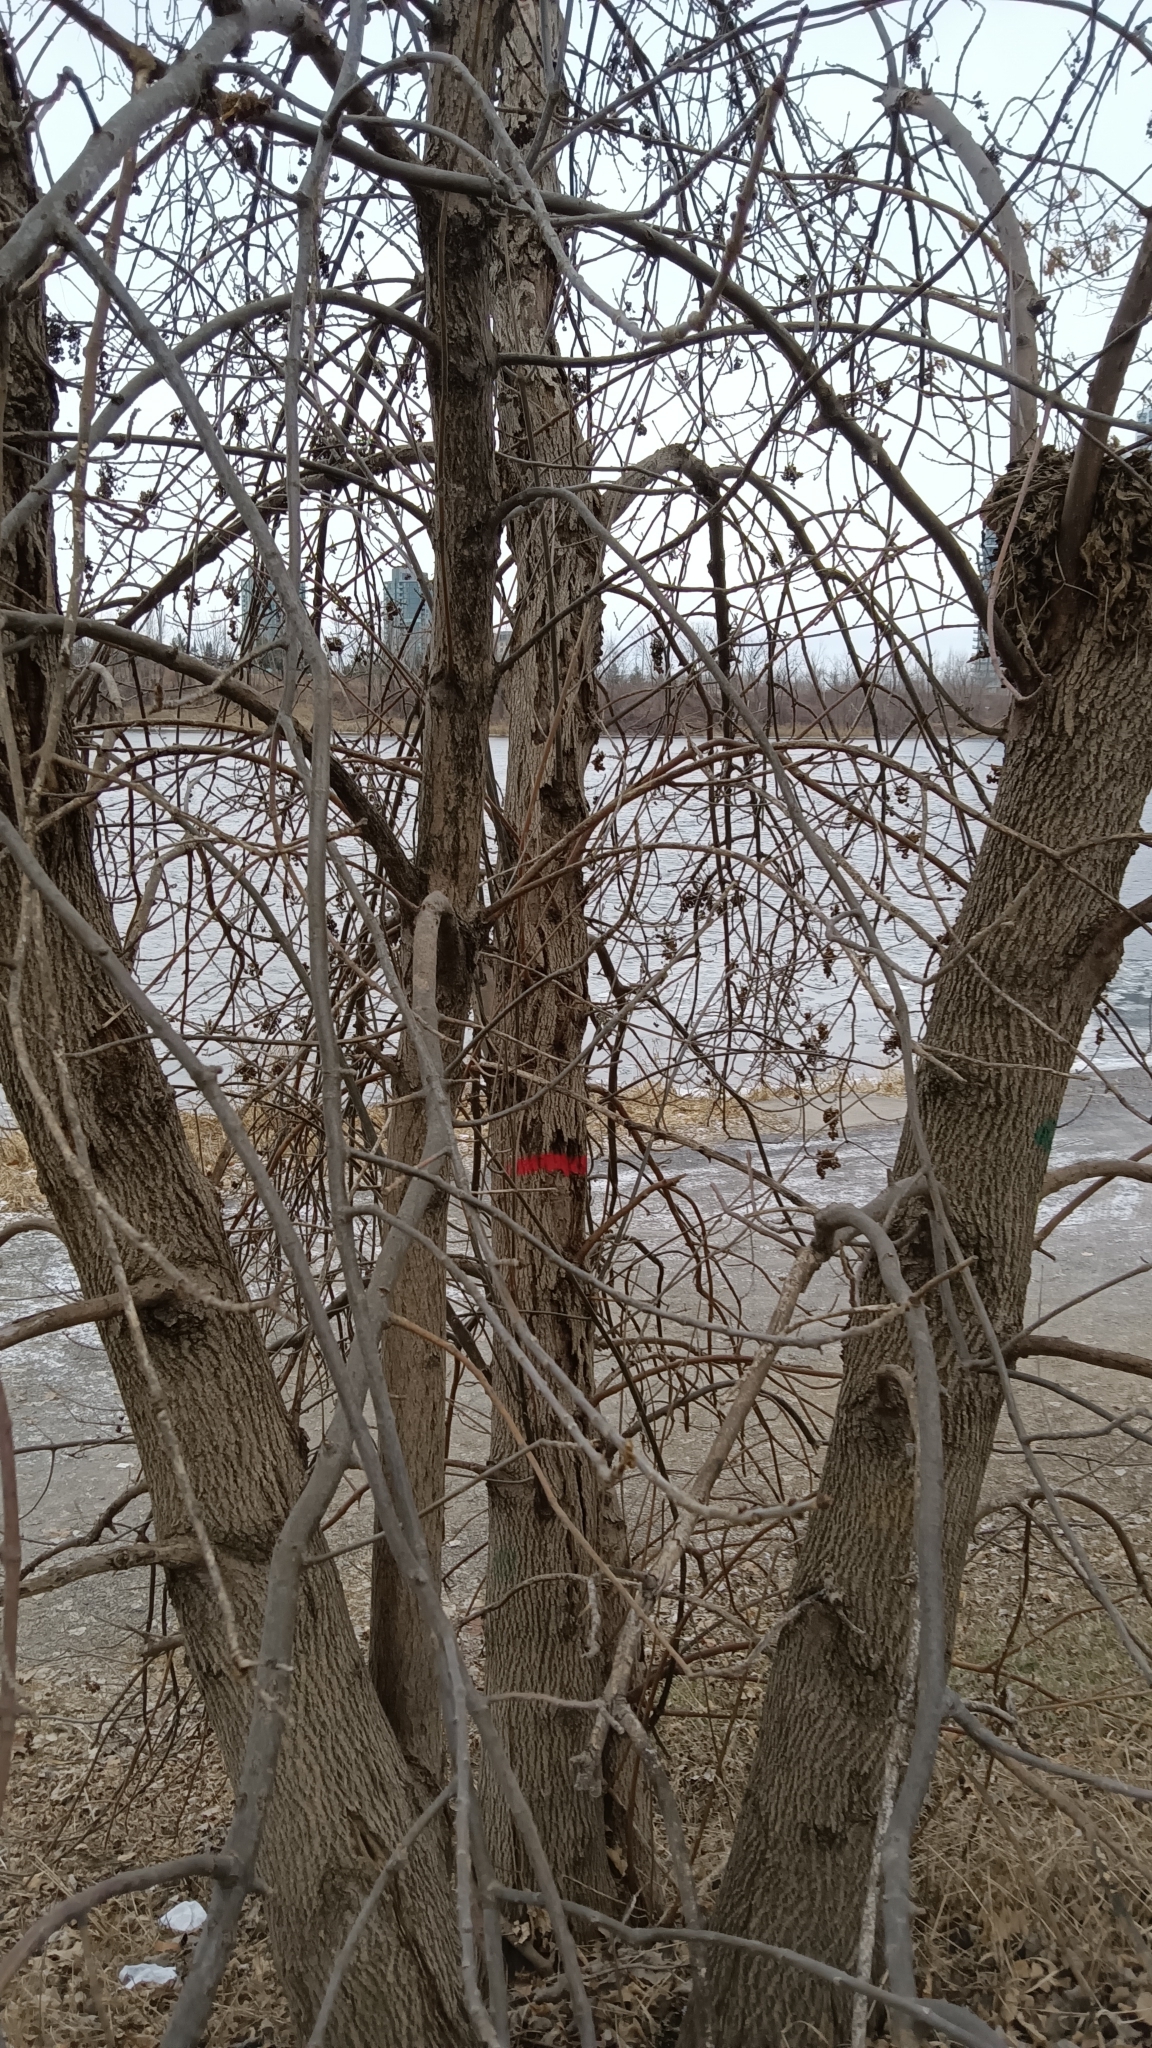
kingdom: Plantae
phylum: Tracheophyta
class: Magnoliopsida
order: Lamiales
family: Oleaceae
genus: Fraxinus
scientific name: Fraxinus pennsylvanica
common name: Green ash
